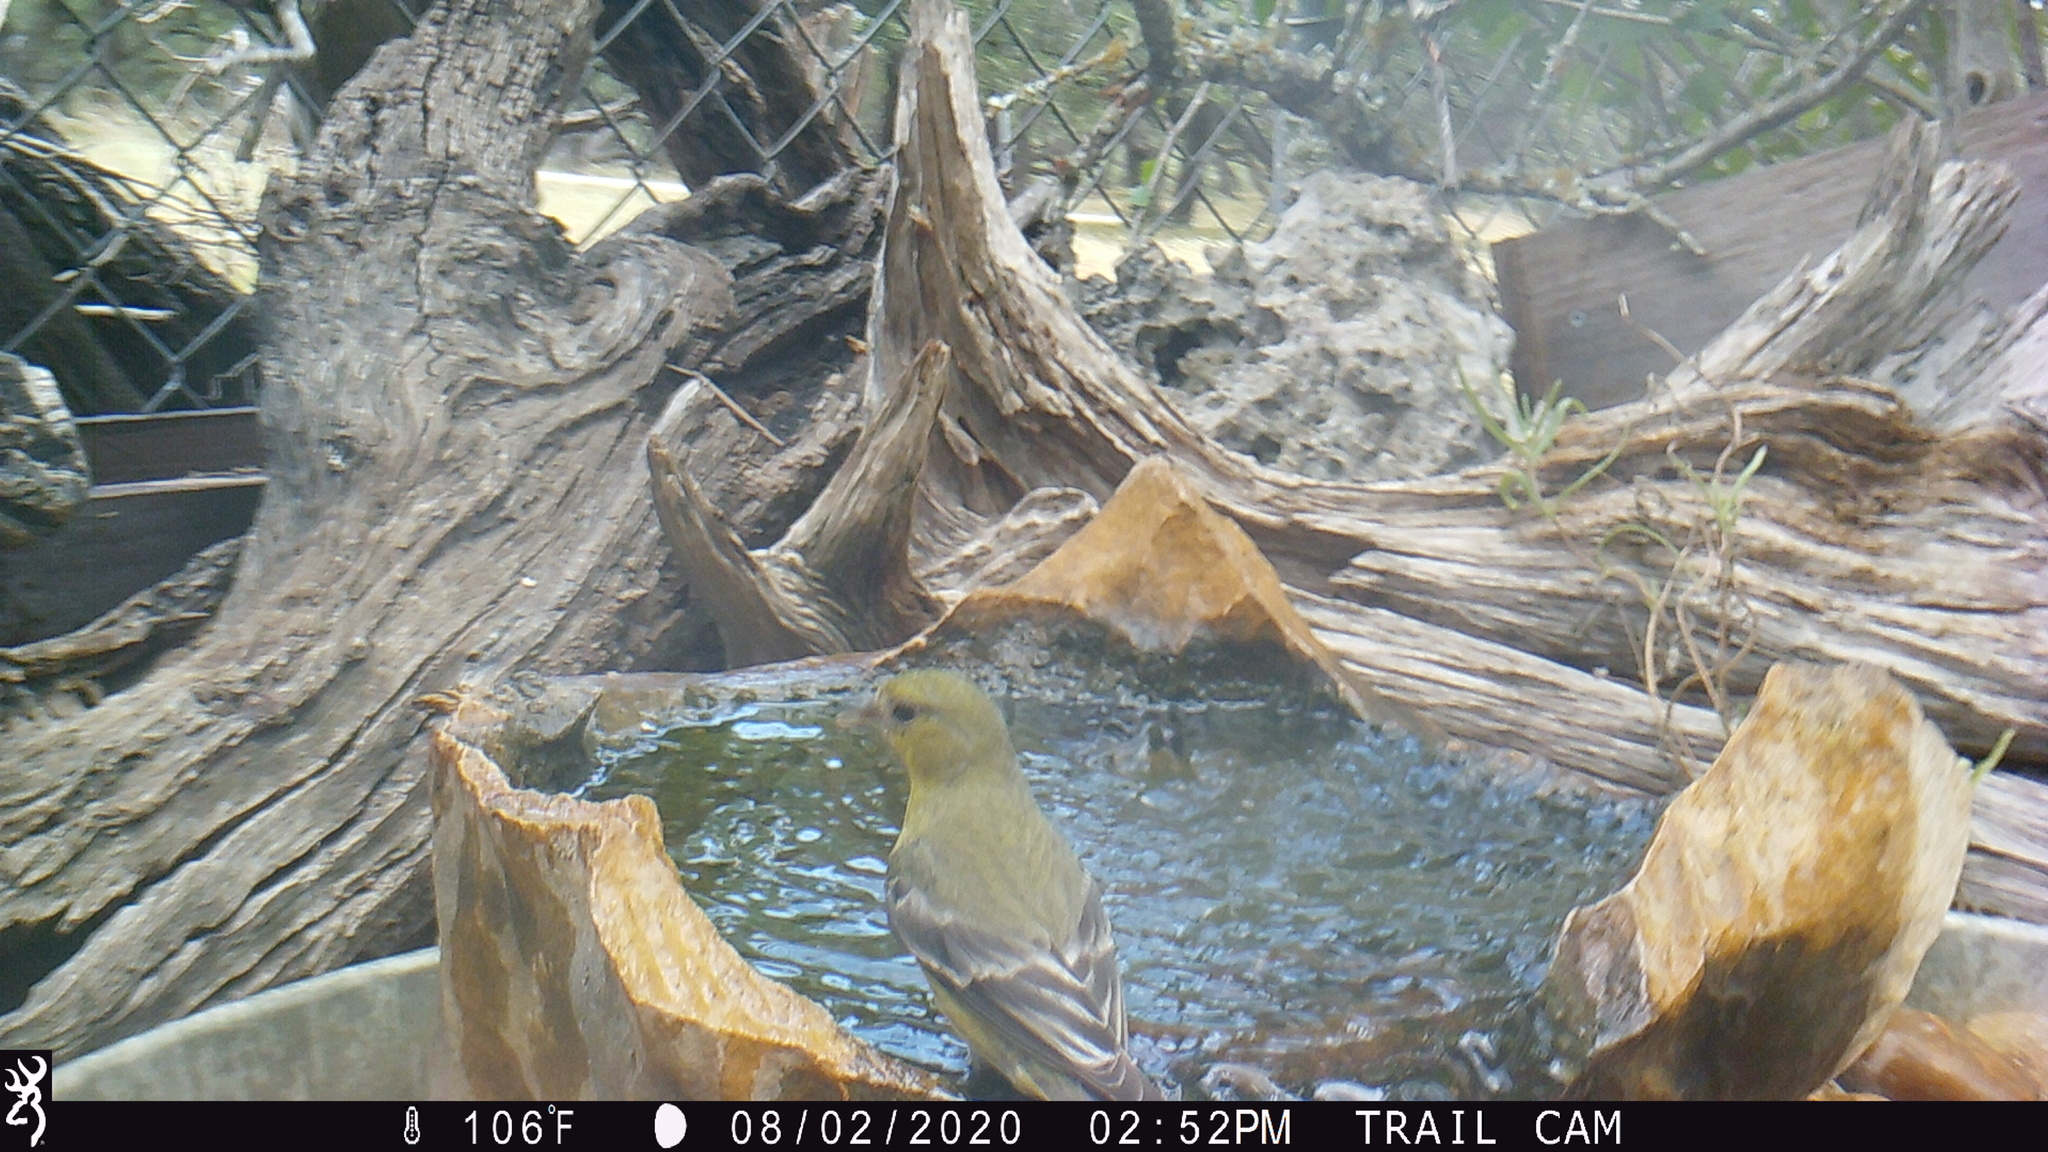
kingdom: Animalia
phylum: Chordata
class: Aves
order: Passeriformes
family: Fringillidae
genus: Spinus
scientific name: Spinus psaltria
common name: Lesser goldfinch
